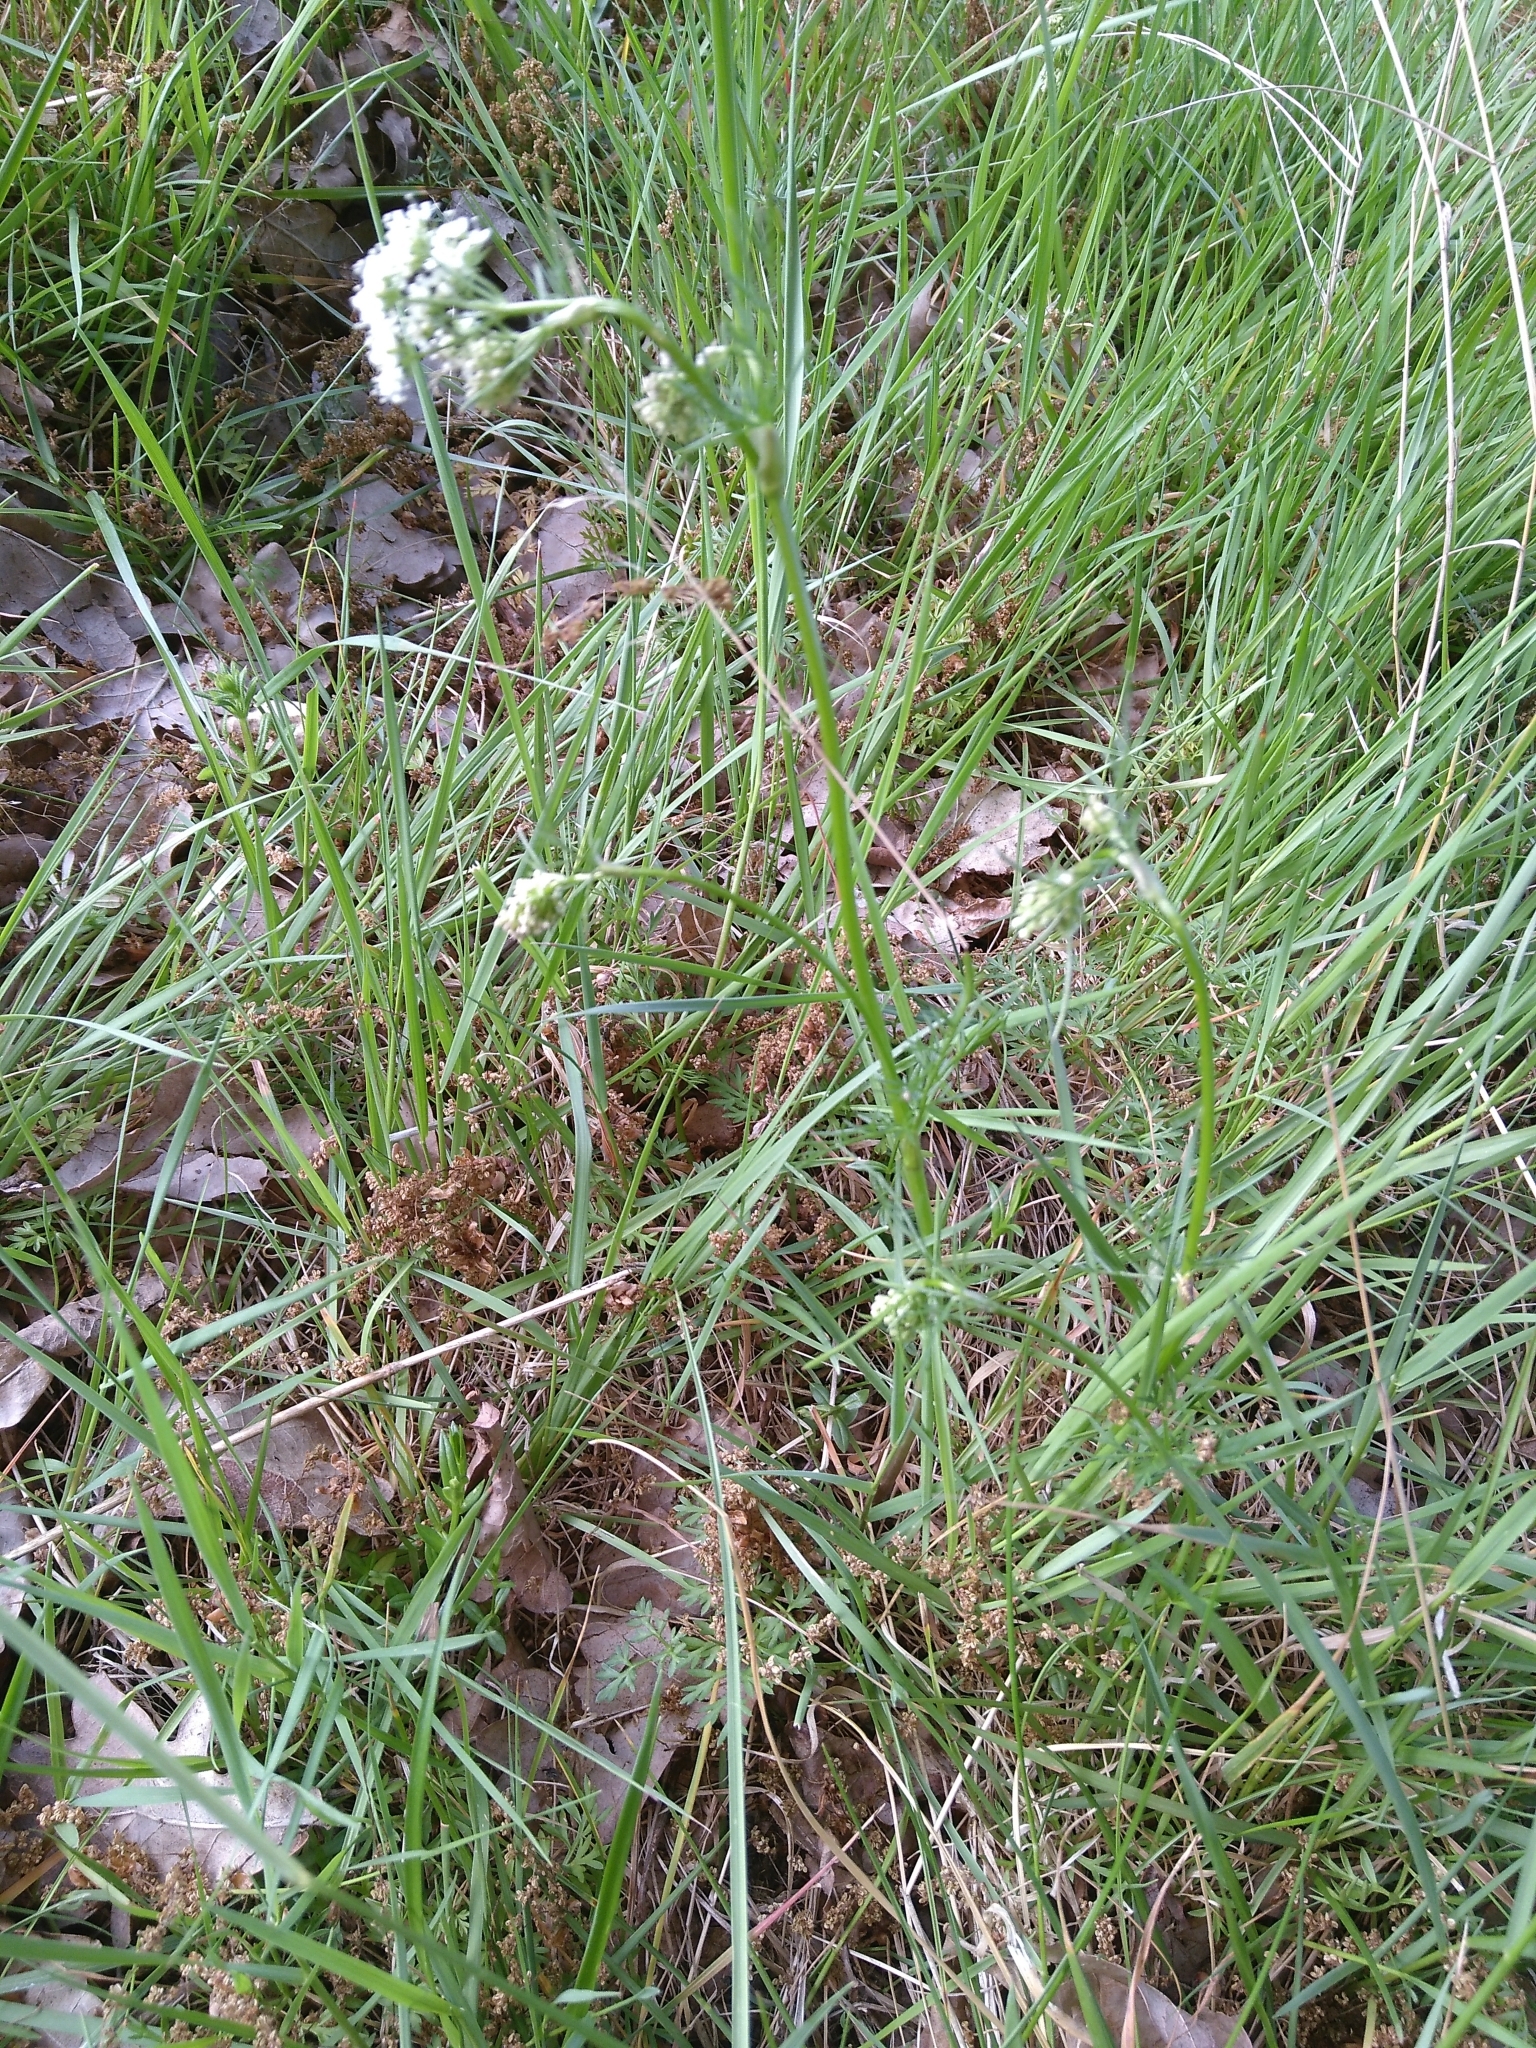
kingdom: Plantae
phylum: Tracheophyta
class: Magnoliopsida
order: Apiales
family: Apiaceae
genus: Conopodium
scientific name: Conopodium majus
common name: Pignut
